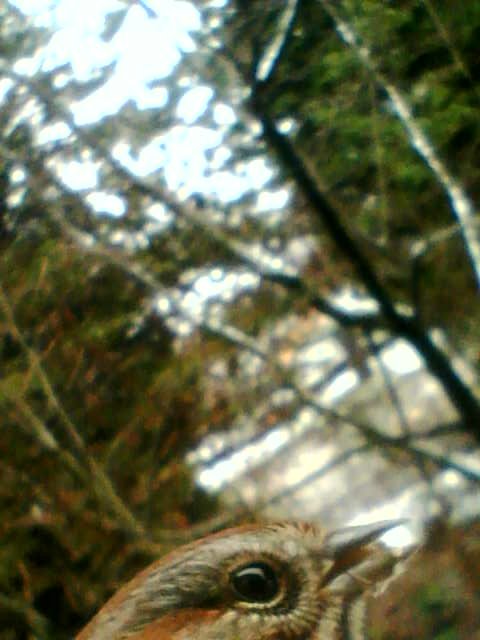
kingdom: Animalia
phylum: Chordata
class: Aves
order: Passeriformes
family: Passerellidae
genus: Melospiza
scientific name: Melospiza melodia
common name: Song sparrow
